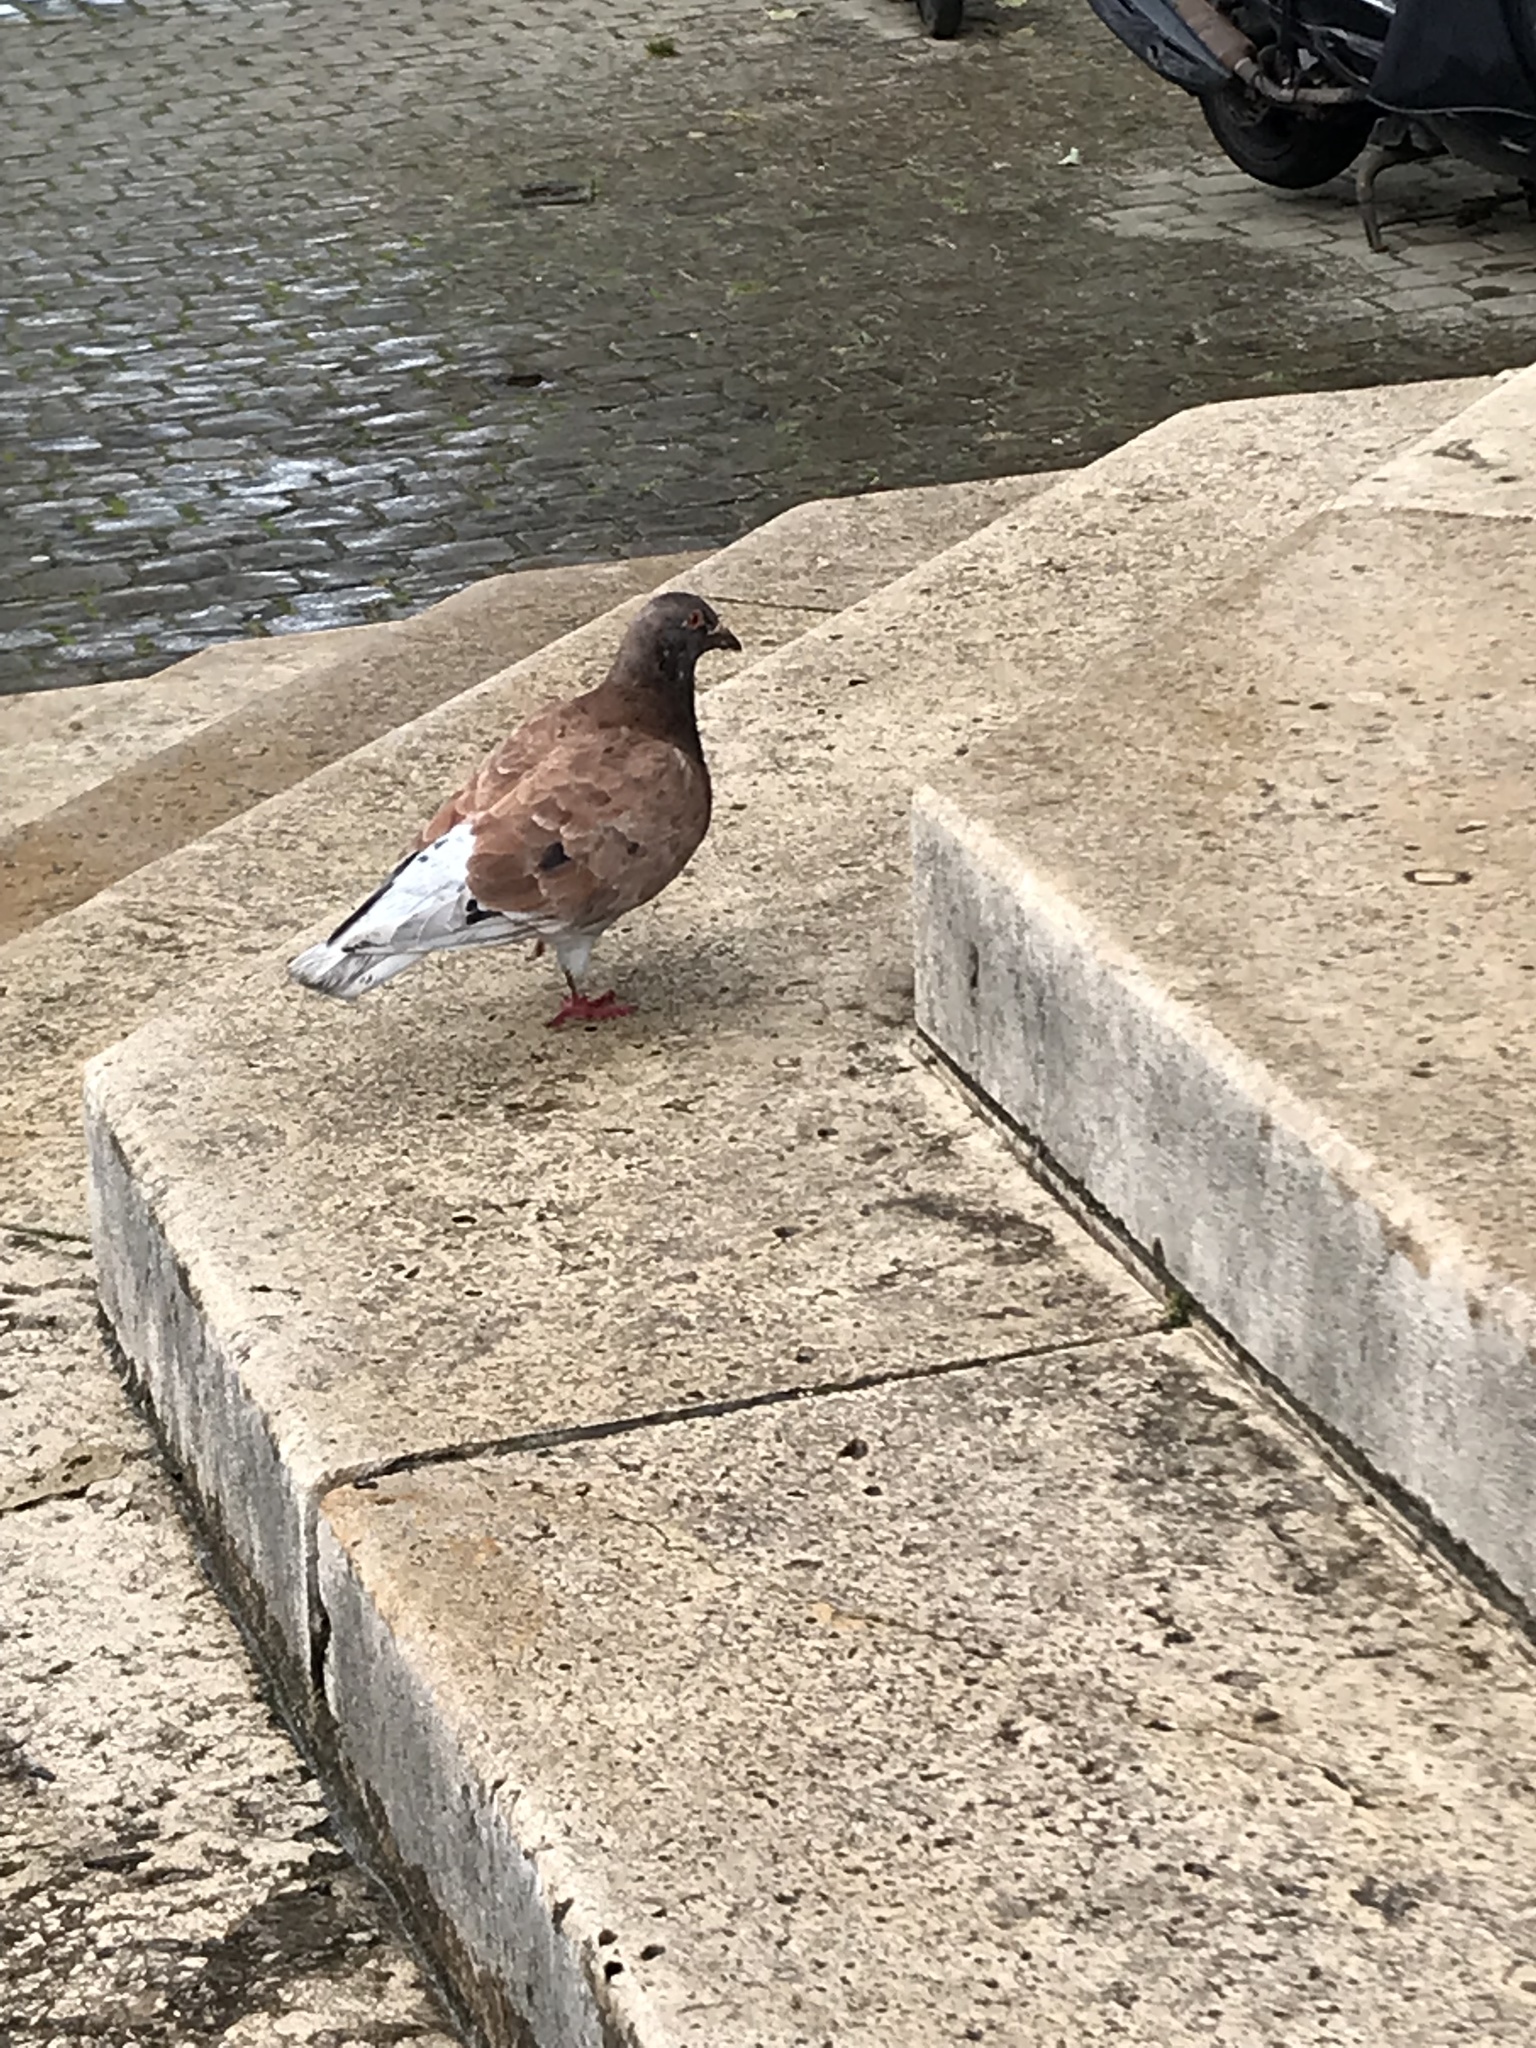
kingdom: Animalia
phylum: Chordata
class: Aves
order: Columbiformes
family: Columbidae
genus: Columba
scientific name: Columba livia
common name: Rock pigeon
